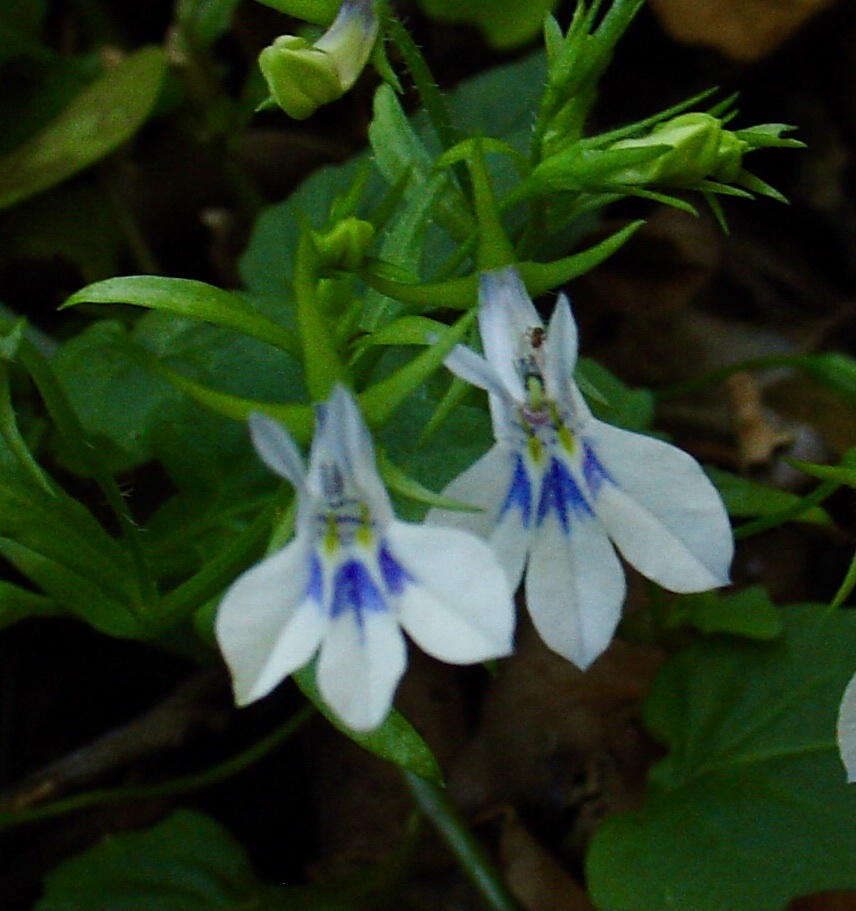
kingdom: Plantae
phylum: Tracheophyta
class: Magnoliopsida
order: Asterales
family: Campanulaceae
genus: Lobelia
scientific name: Lobelia cuneifolia
